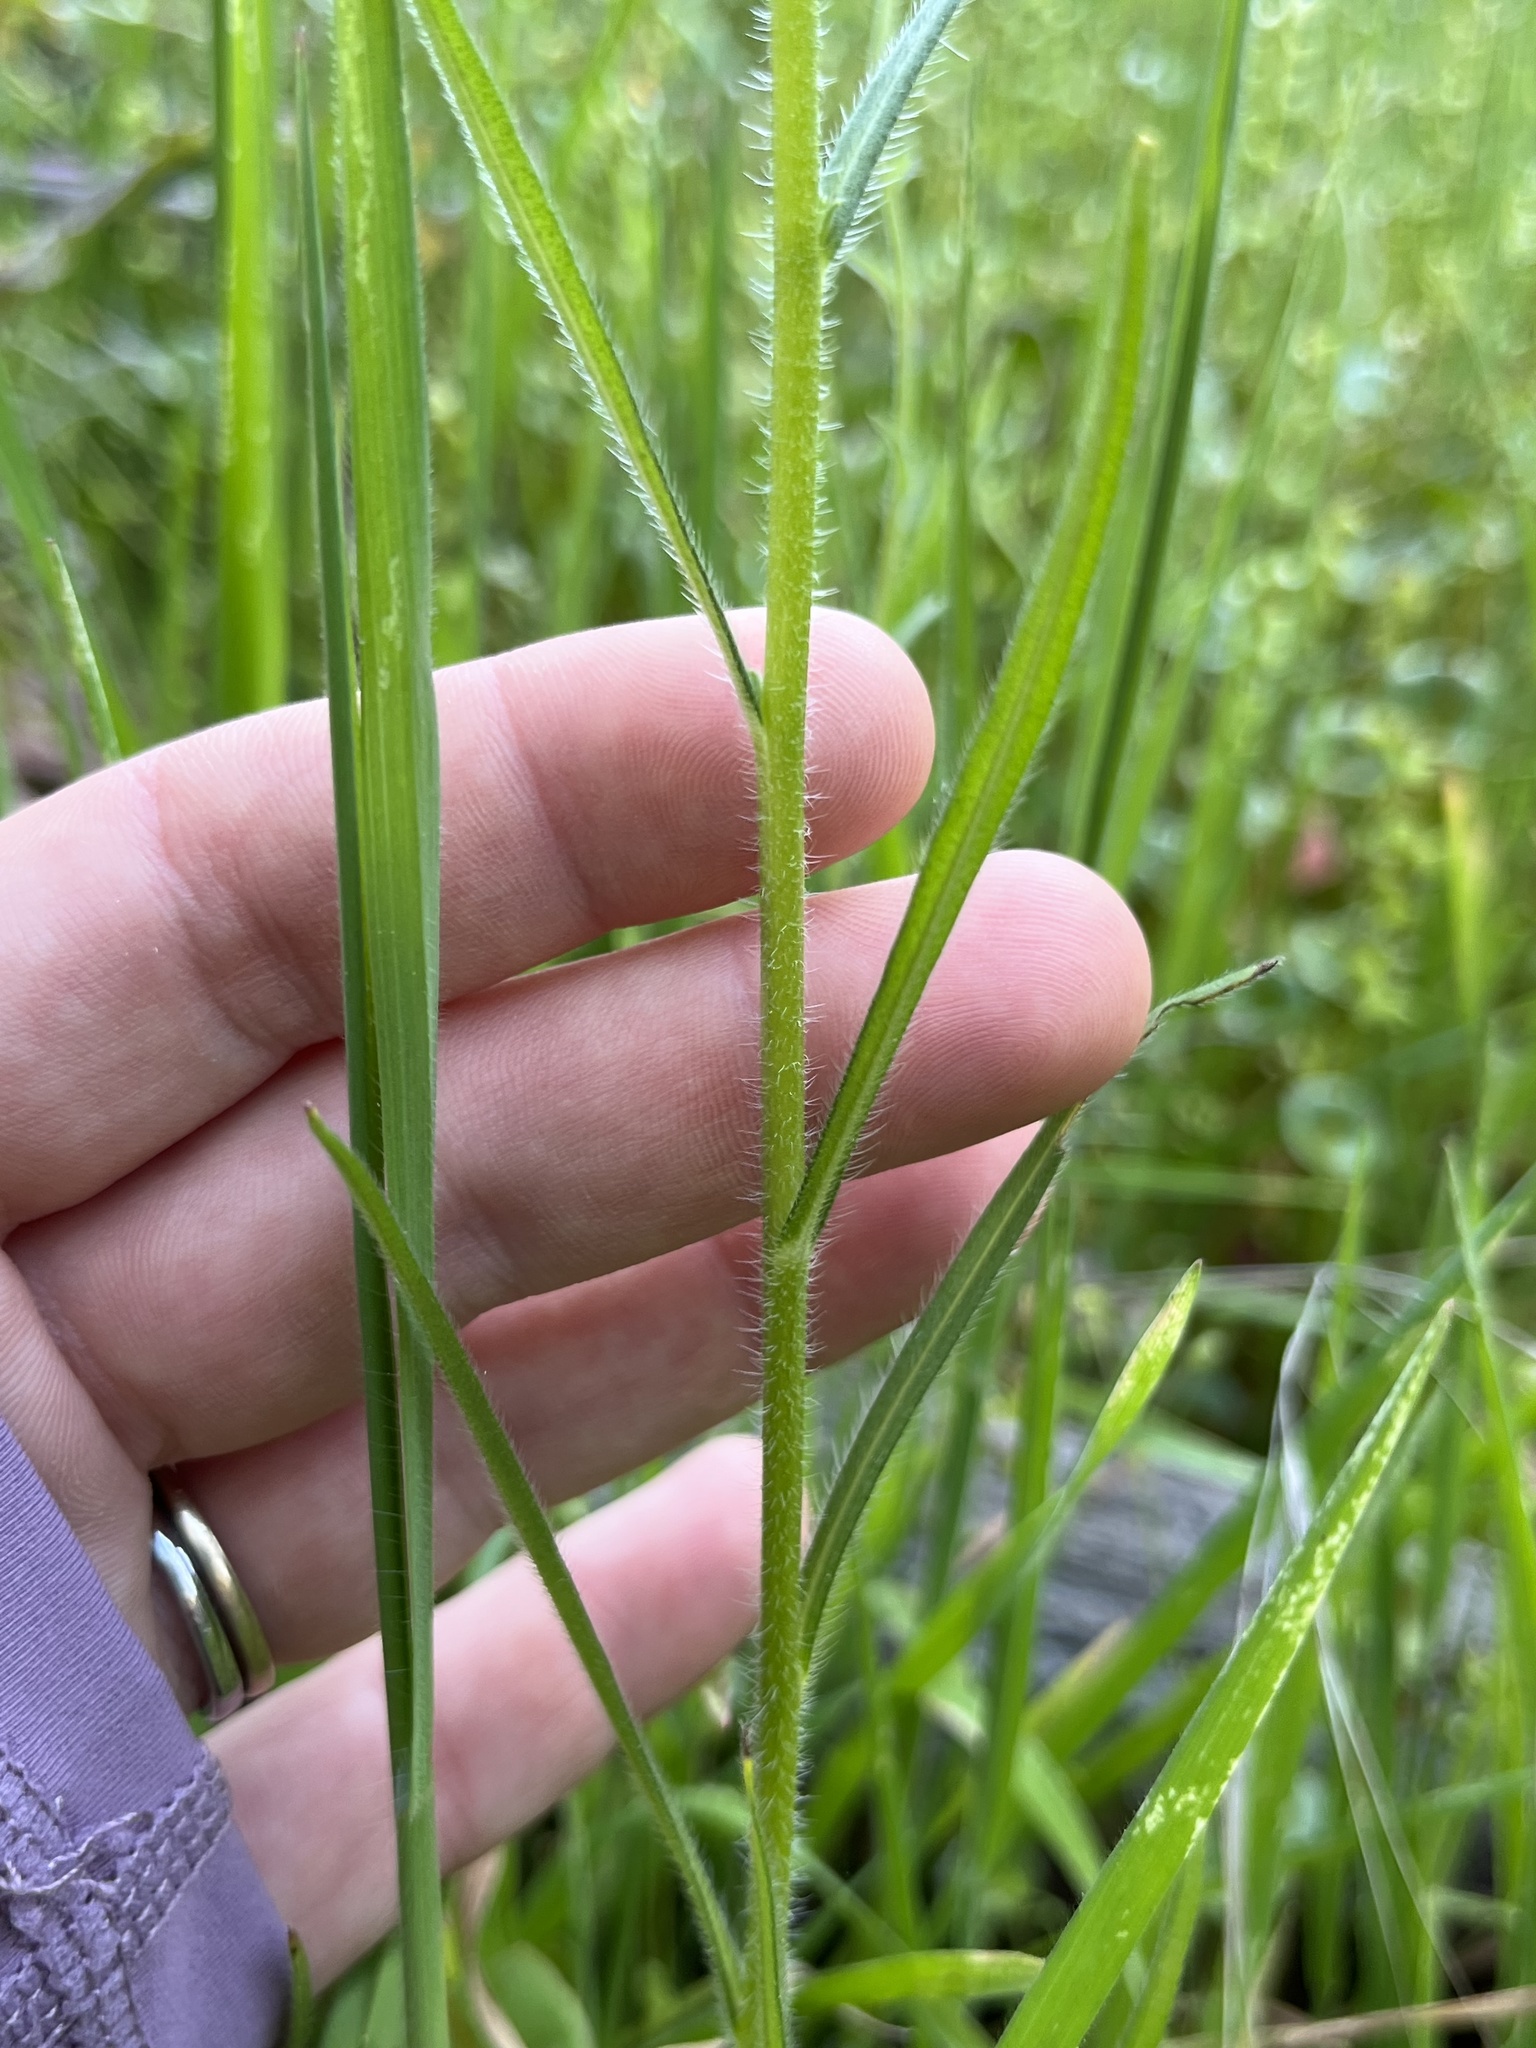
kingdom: Plantae
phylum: Tracheophyta
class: Magnoliopsida
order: Boraginales
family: Boraginaceae
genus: Amsinckia
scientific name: Amsinckia eastwoodiae
